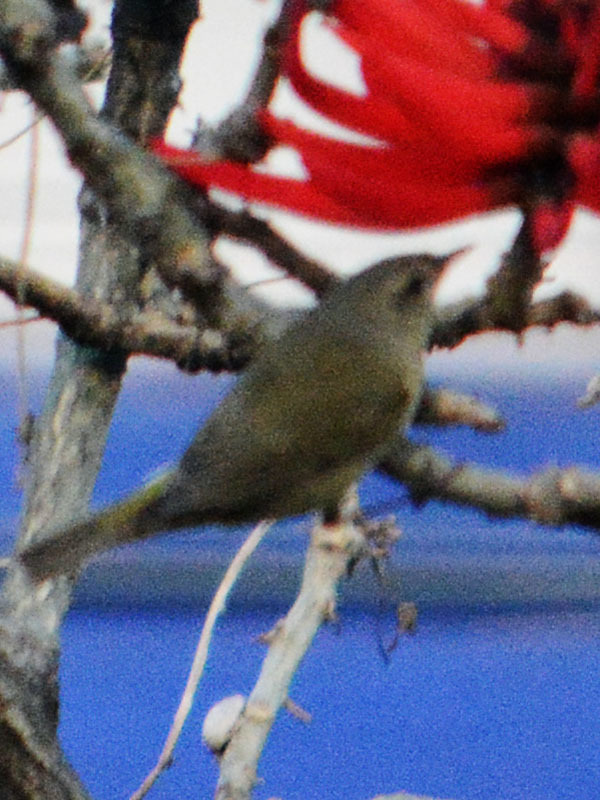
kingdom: Animalia
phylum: Chordata
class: Aves
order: Passeriformes
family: Parulidae
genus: Leiothlypis
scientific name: Leiothlypis celata
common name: Orange-crowned warbler
